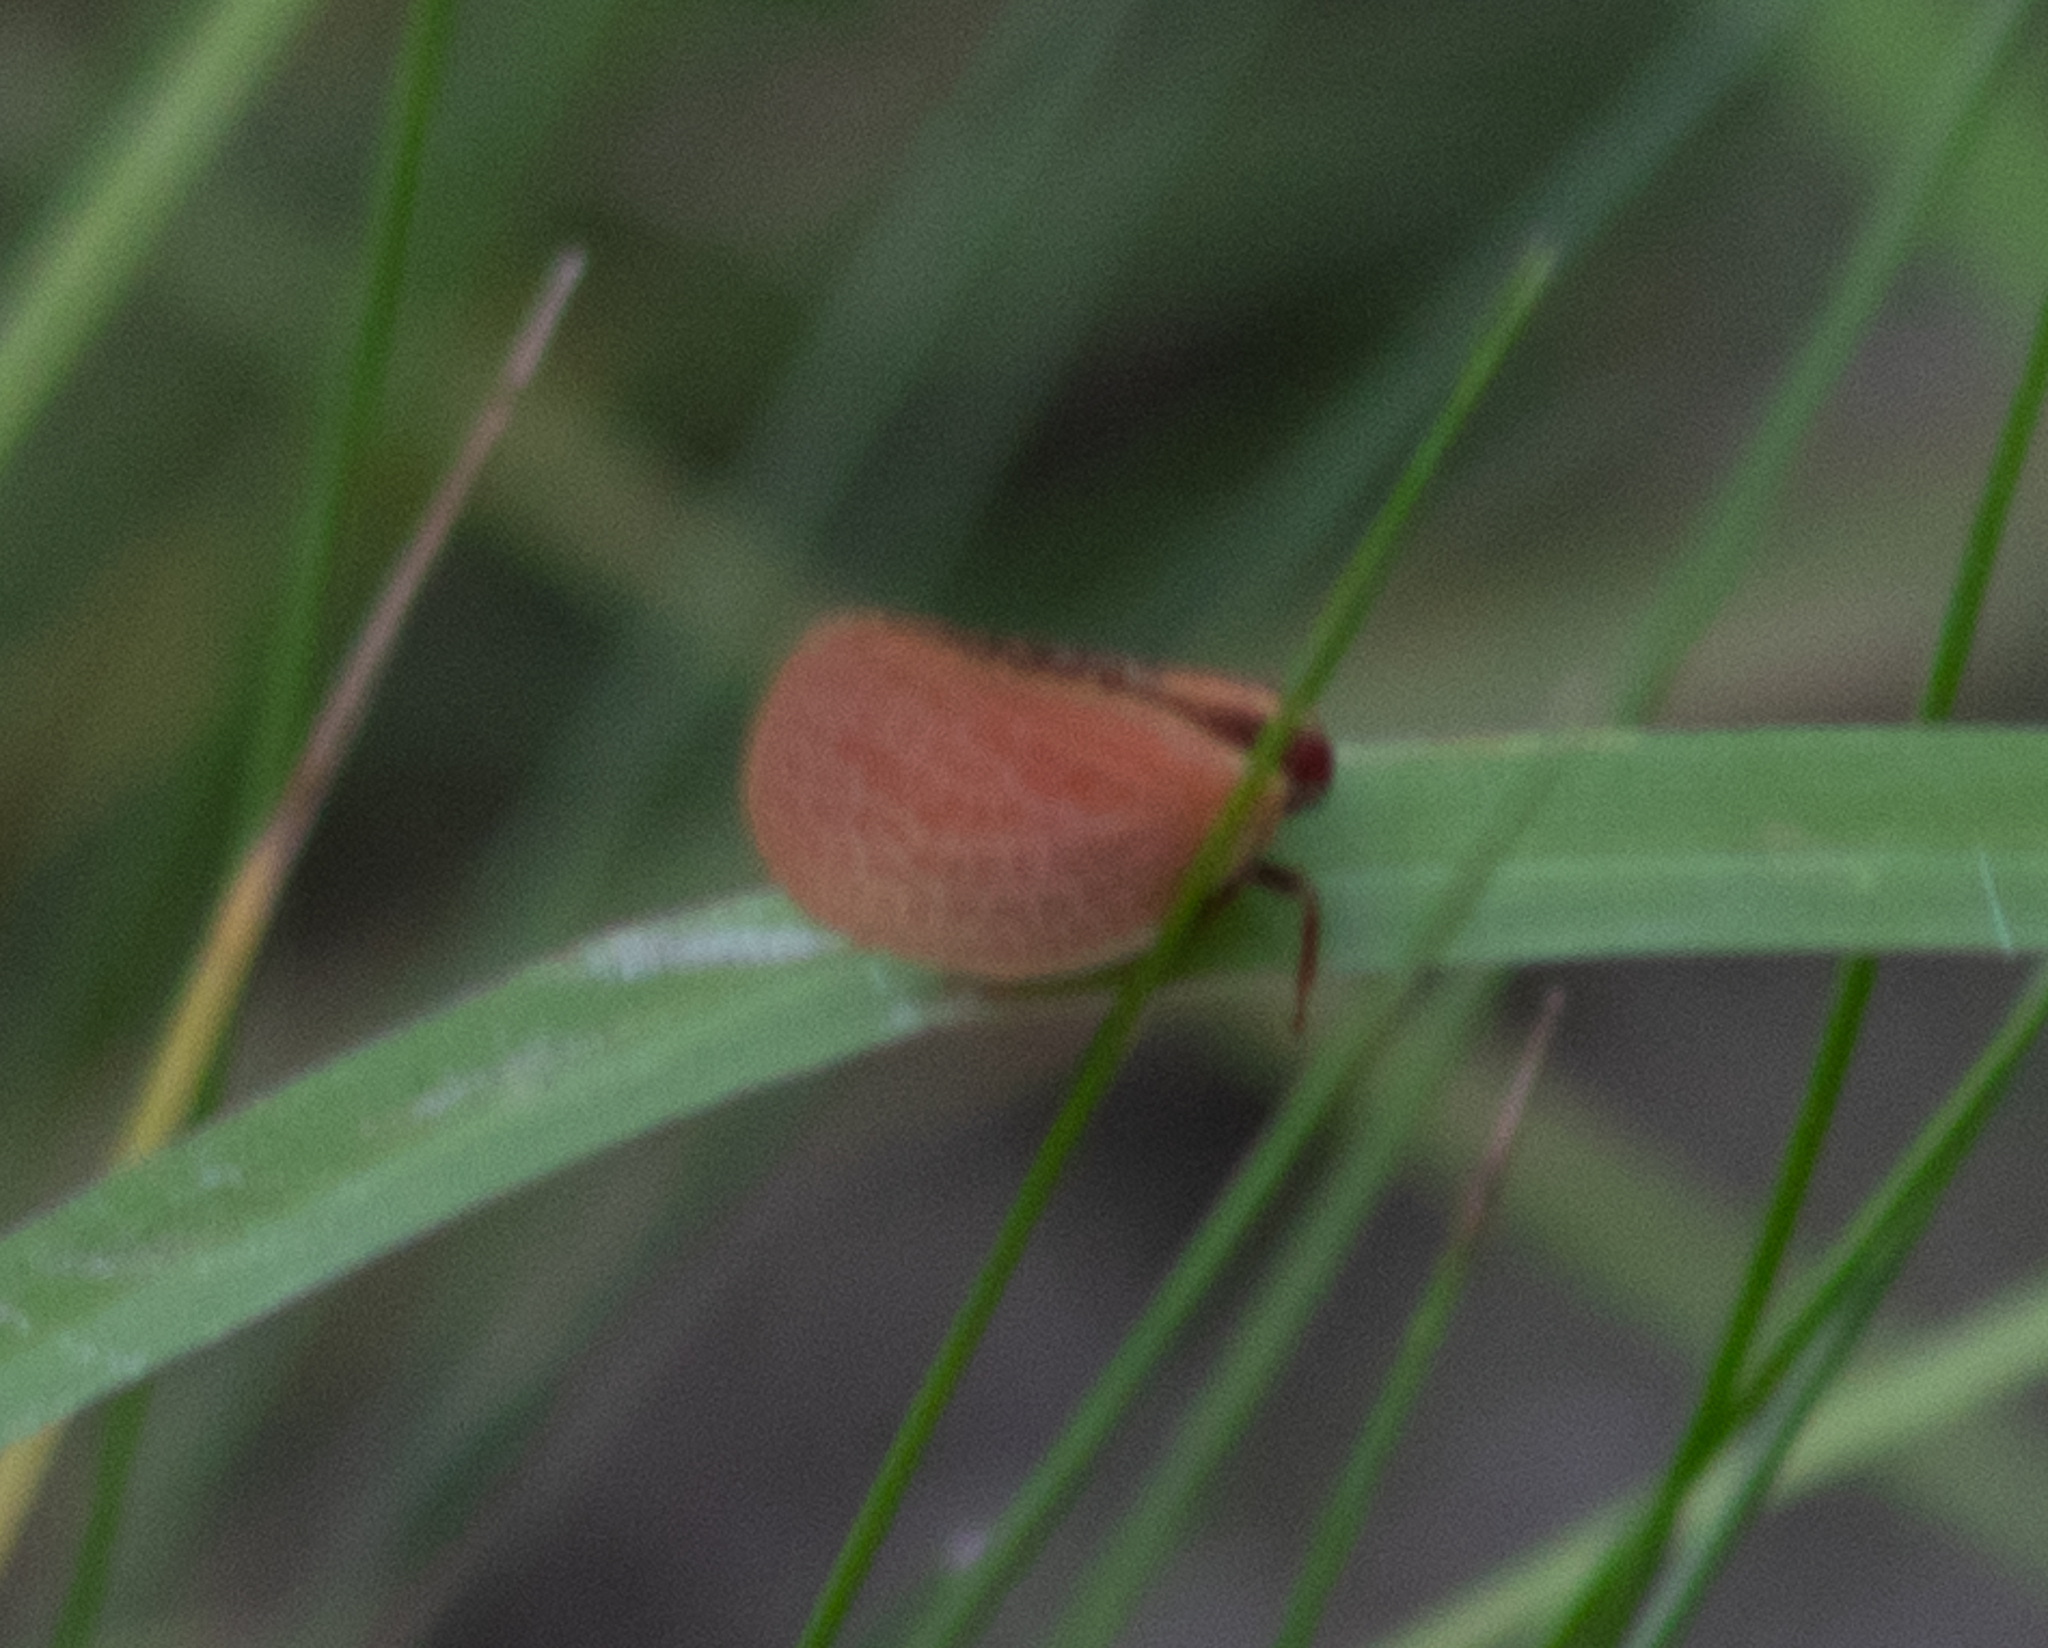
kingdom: Animalia
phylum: Arthropoda
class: Insecta
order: Hemiptera
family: Acanaloniidae
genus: Acanalonia
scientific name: Acanalonia bivittata
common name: Two-striped planthopper
